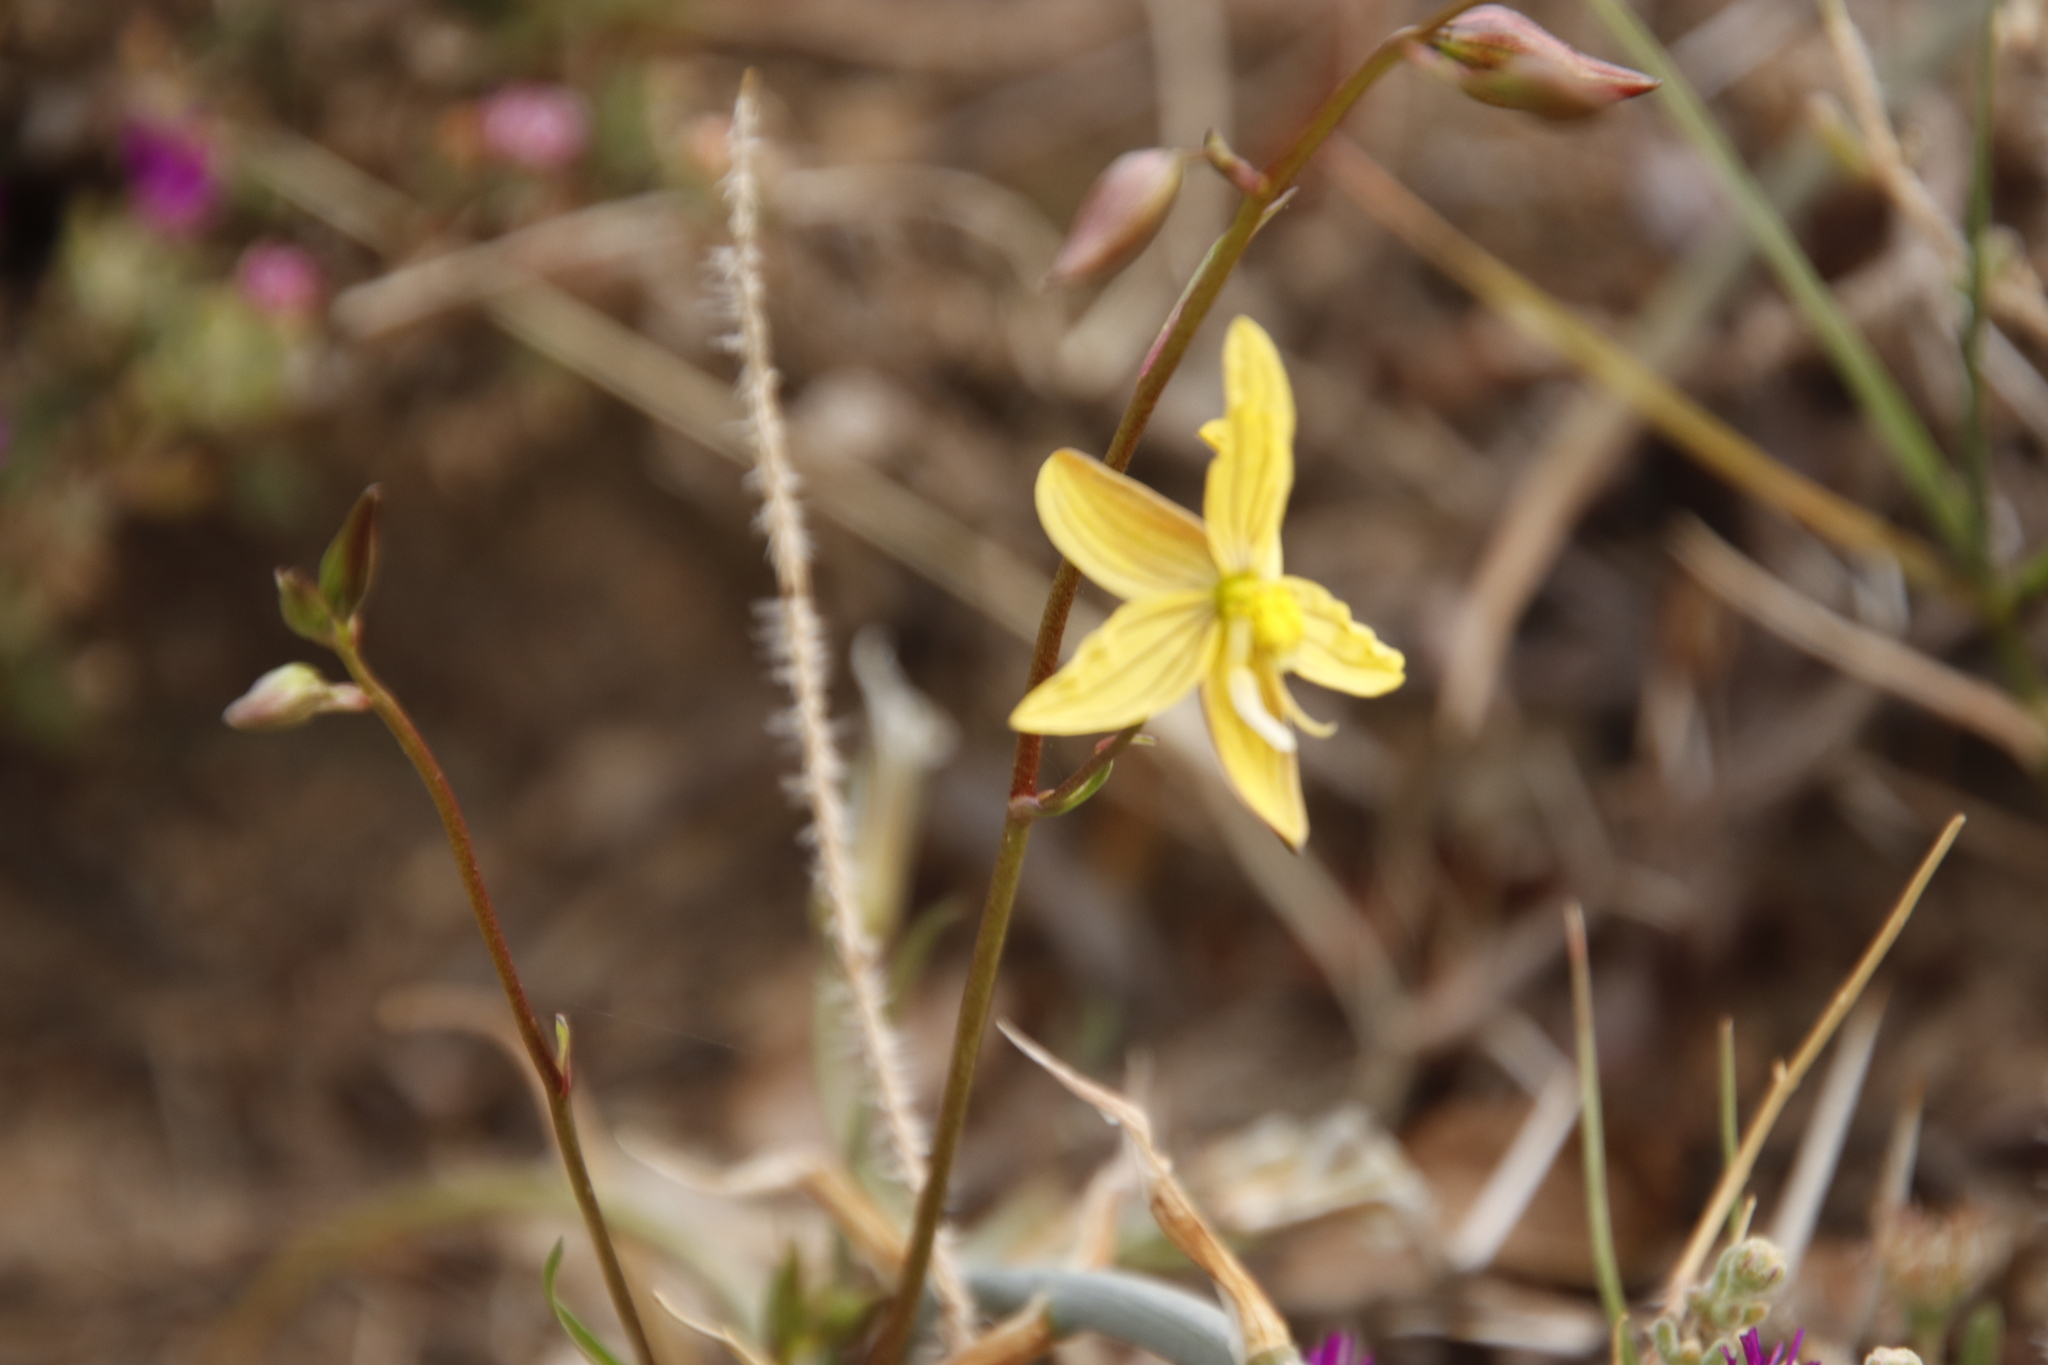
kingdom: Plantae
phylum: Tracheophyta
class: Liliopsida
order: Asparagales
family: Tecophilaeaceae
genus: Cyanella
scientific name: Cyanella lutea
